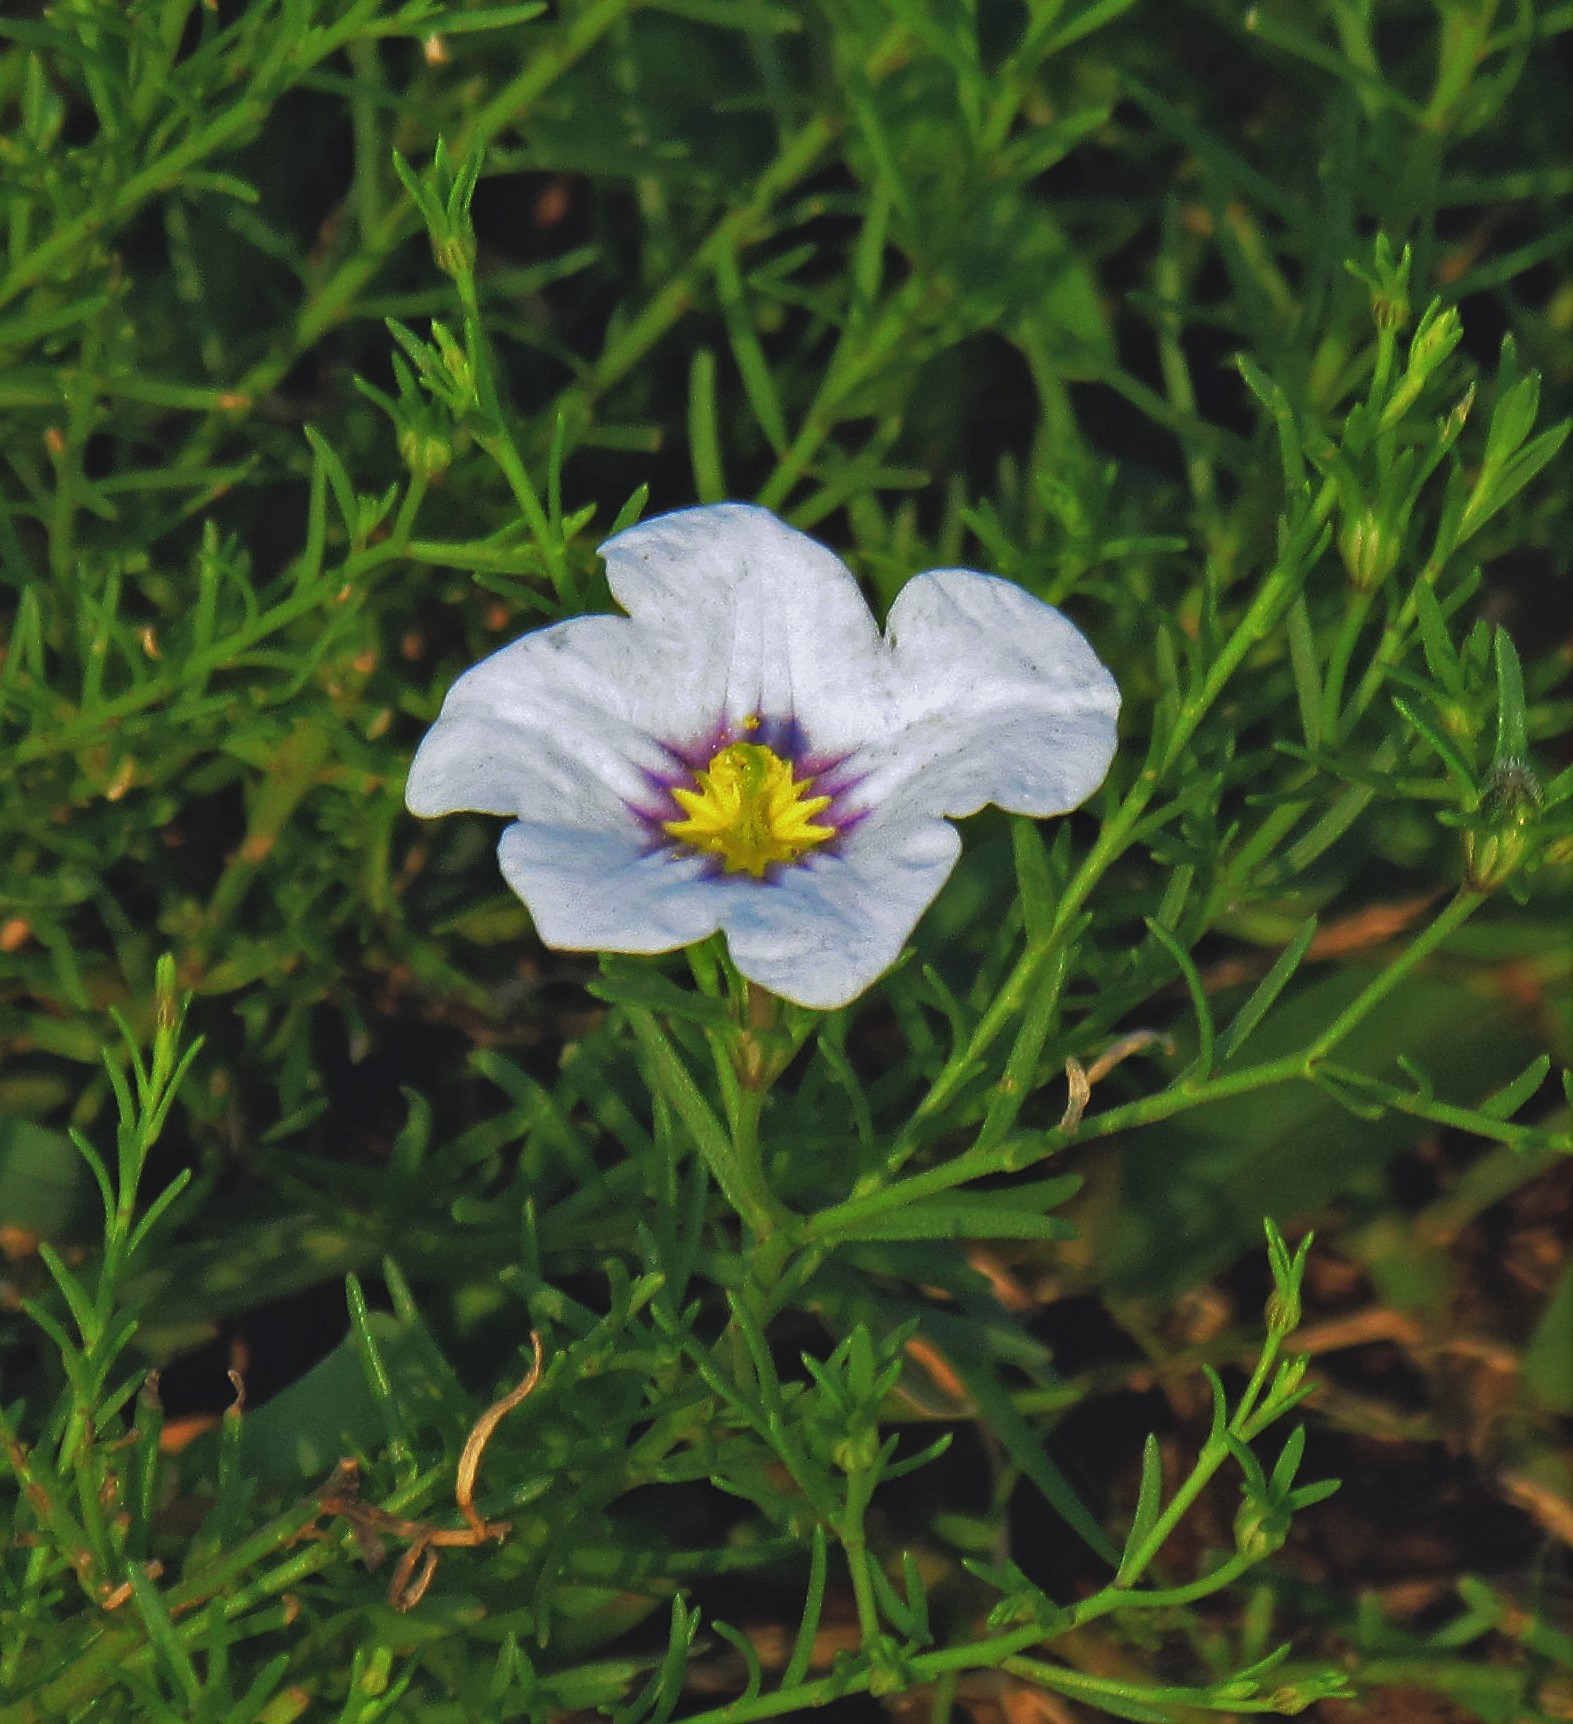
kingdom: Plantae
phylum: Tracheophyta
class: Magnoliopsida
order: Solanales
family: Solanaceae
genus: Nierembergia
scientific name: Nierembergia linariifolia
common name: Dwarf cupflower
